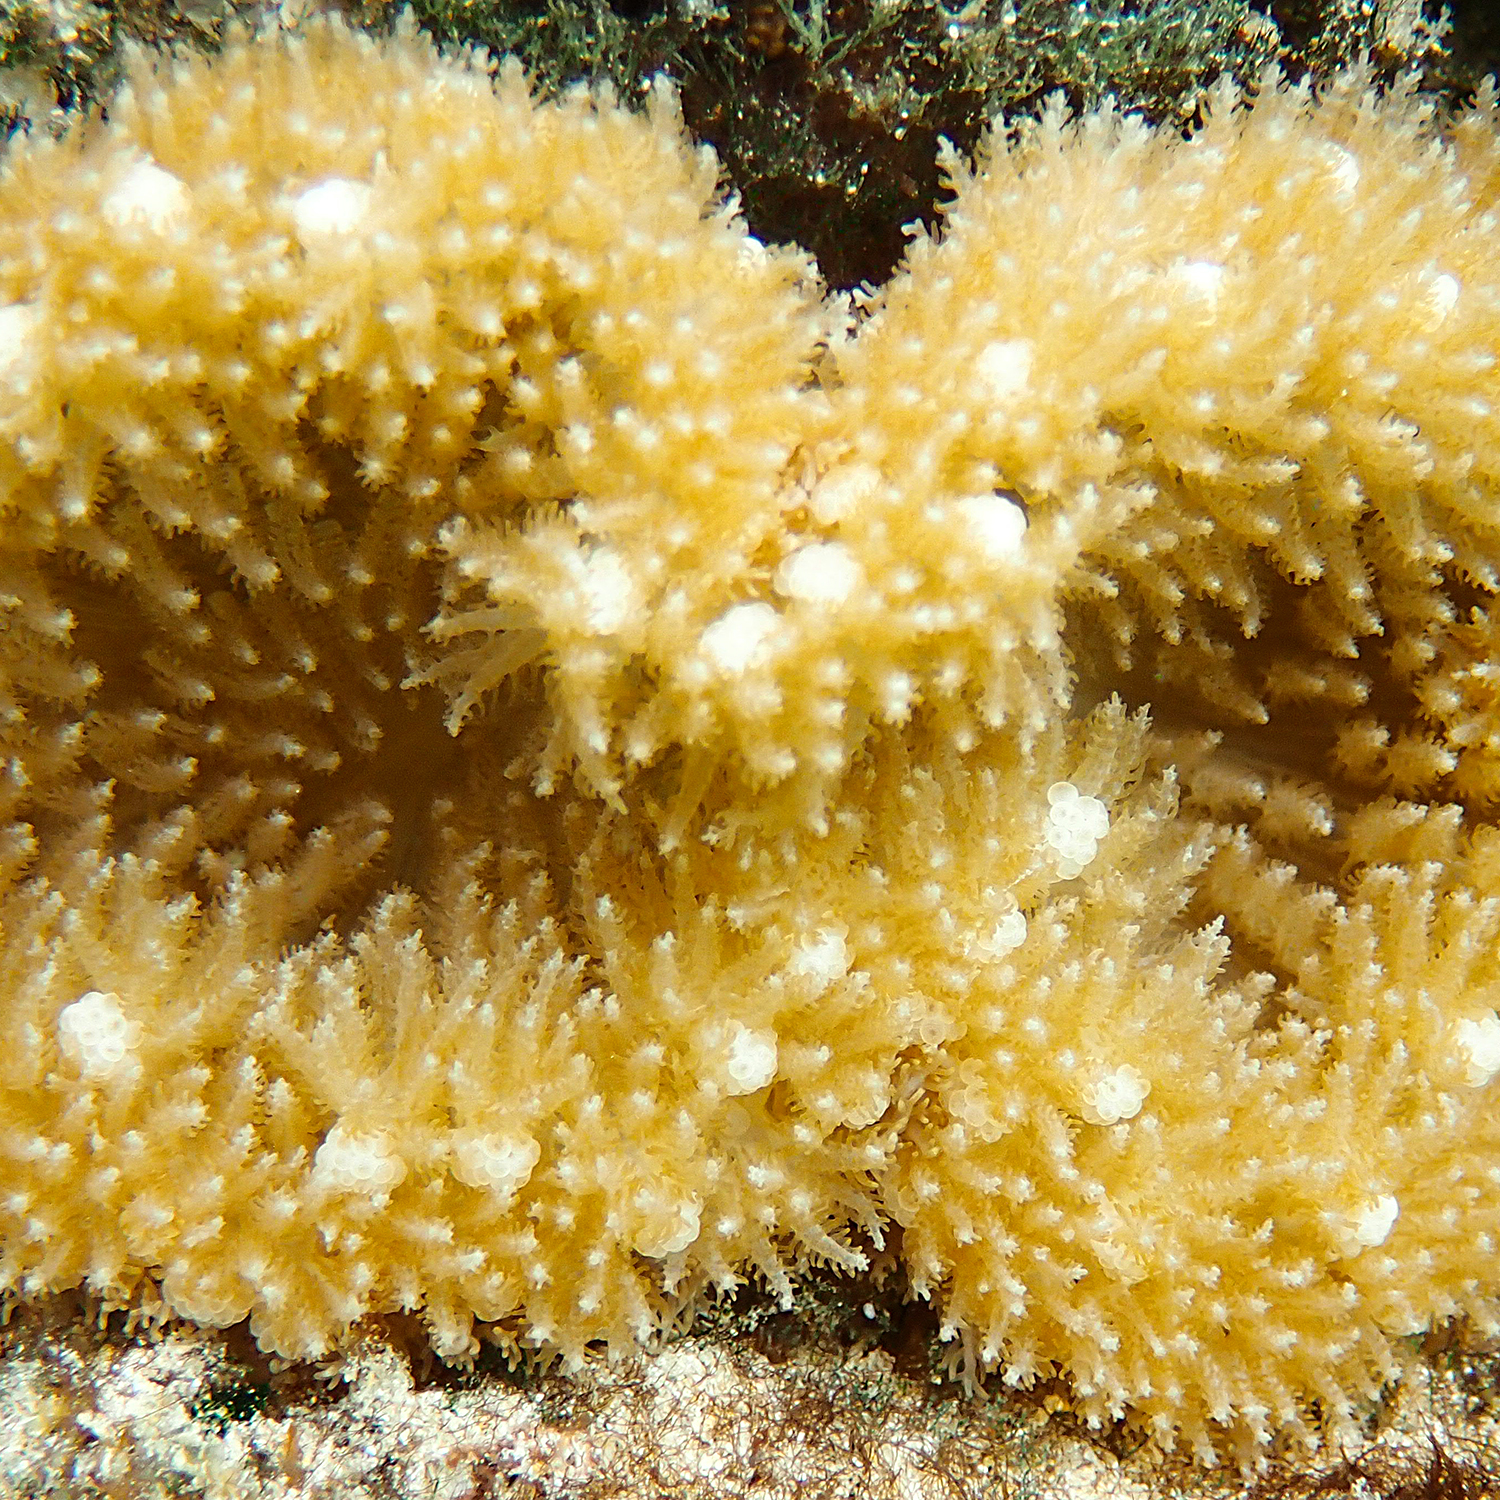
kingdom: Animalia
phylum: Cnidaria
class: Anthozoa
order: Actiniaria
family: Thalassianthidae
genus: Heterodactyla
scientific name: Heterodactyla hemprichii
